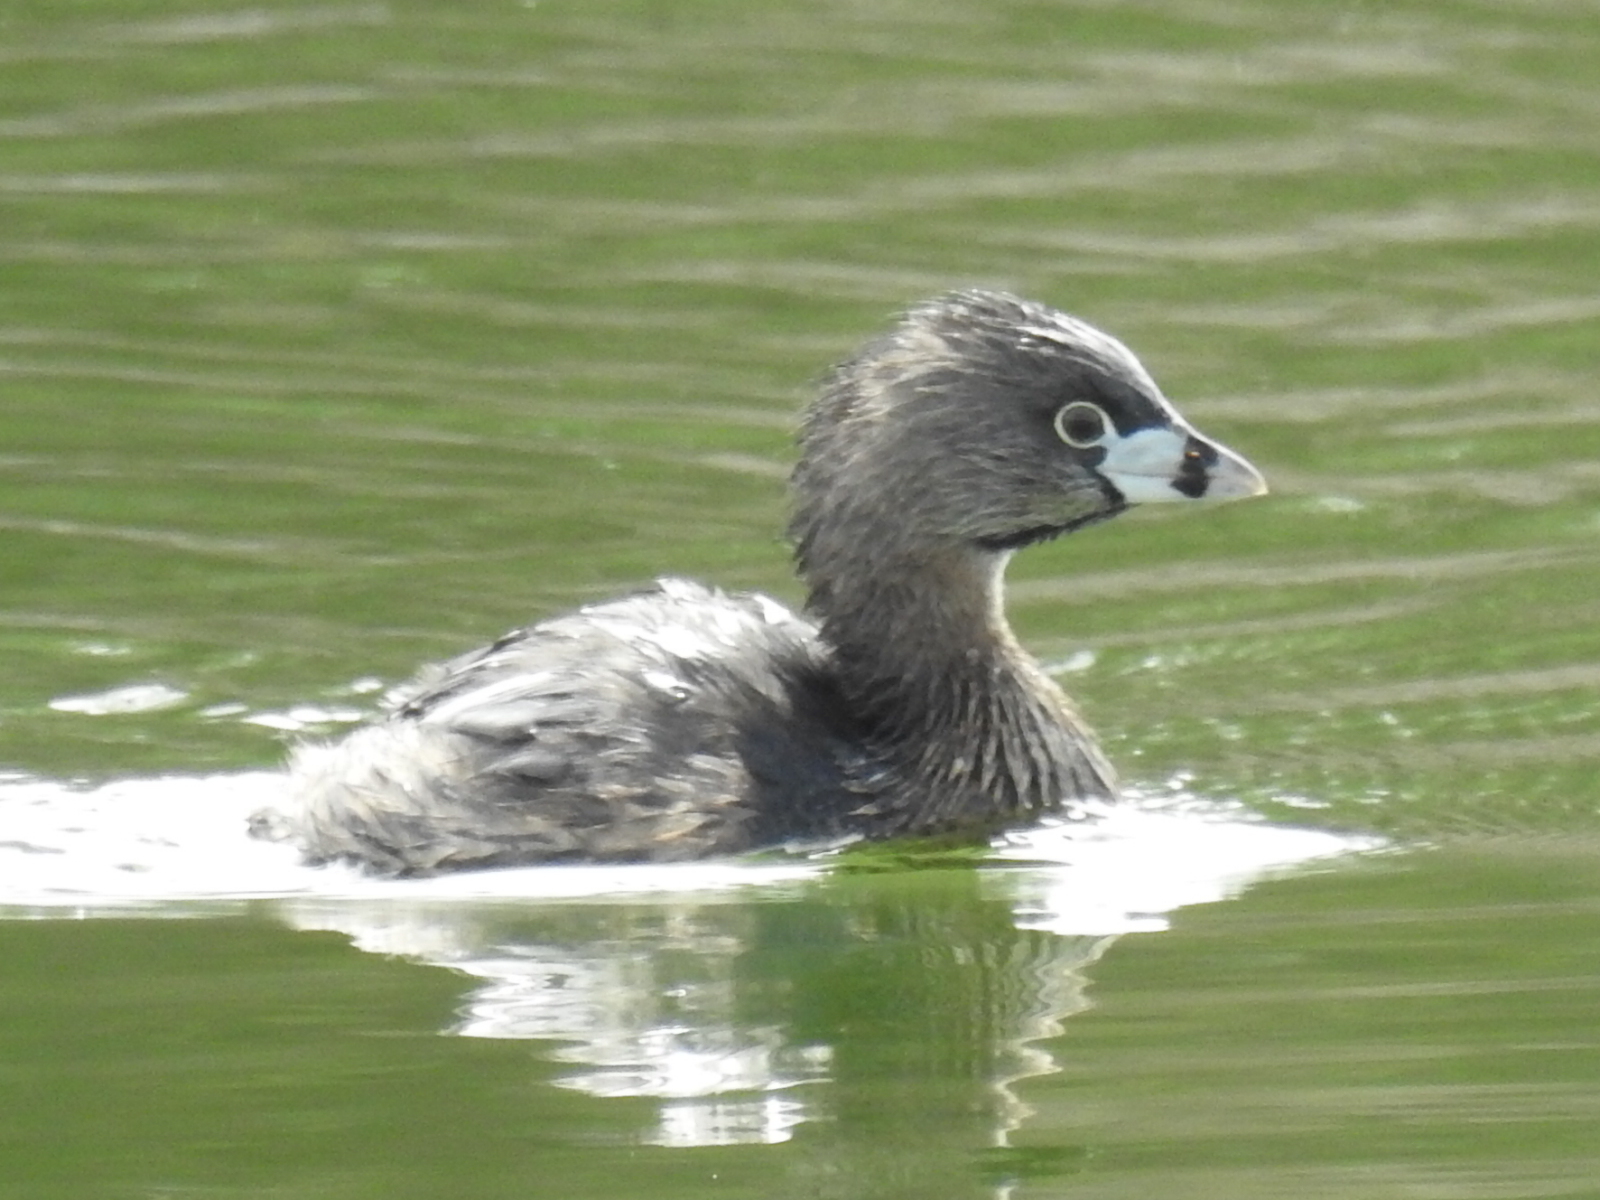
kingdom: Animalia
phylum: Chordata
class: Aves
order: Podicipediformes
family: Podicipedidae
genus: Podilymbus
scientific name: Podilymbus podiceps
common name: Pied-billed grebe
